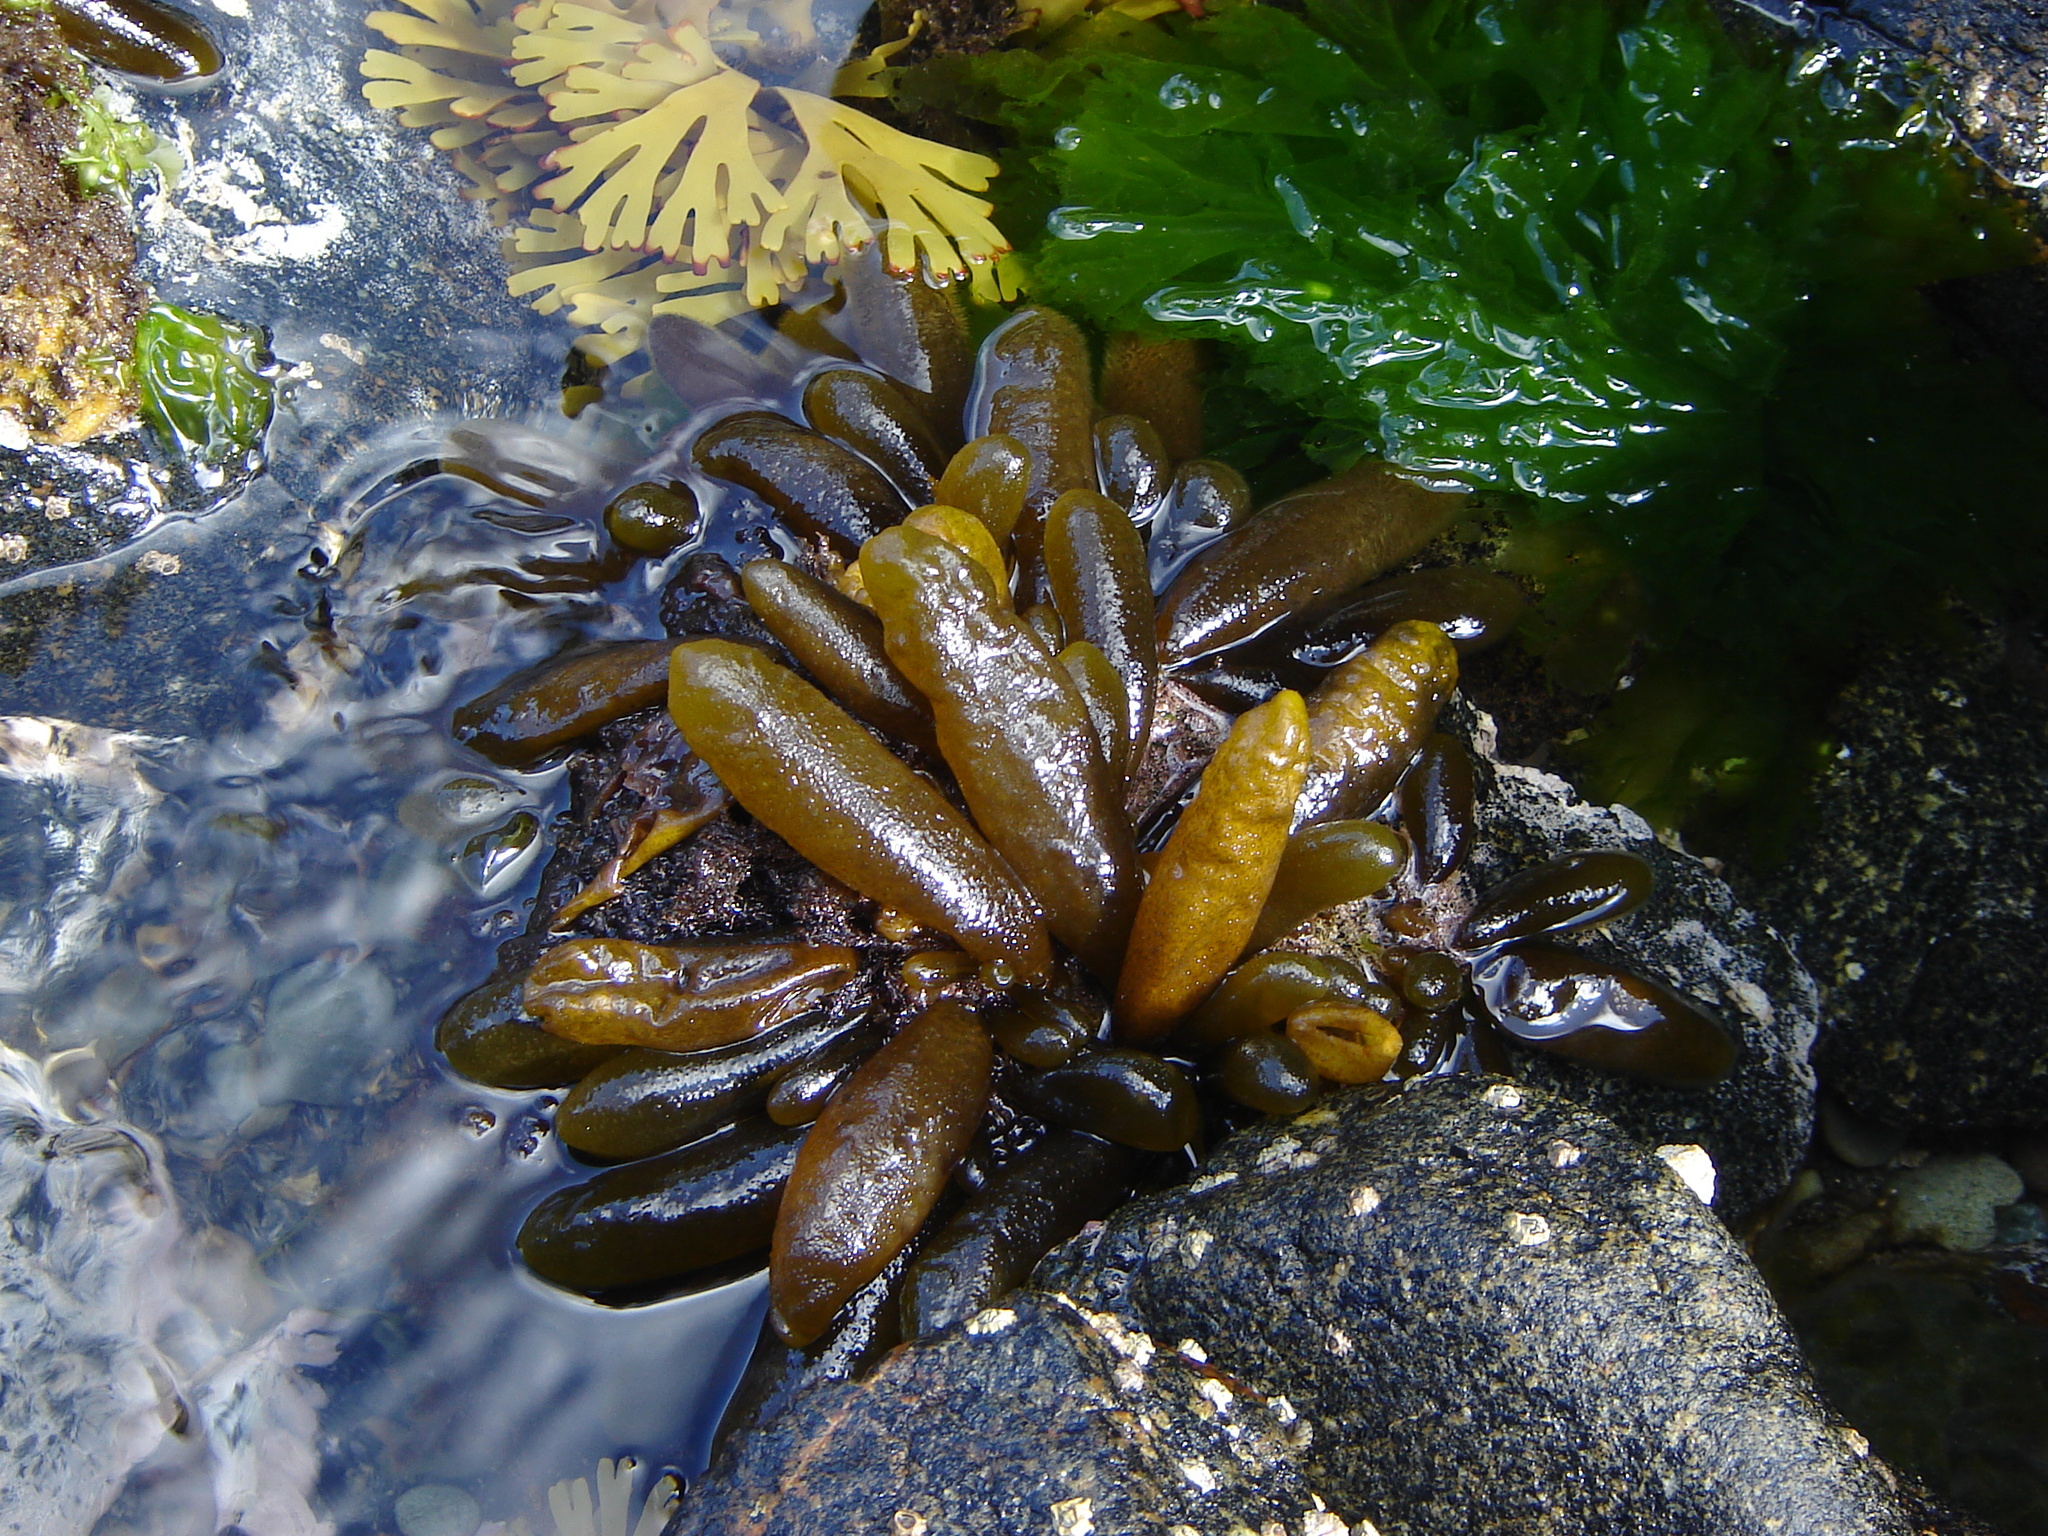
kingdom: Chromista
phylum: Ochrophyta
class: Phaeophyceae
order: Ectocarpales
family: Adenocystaceae
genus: Adenocystis
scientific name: Adenocystis utricularis
